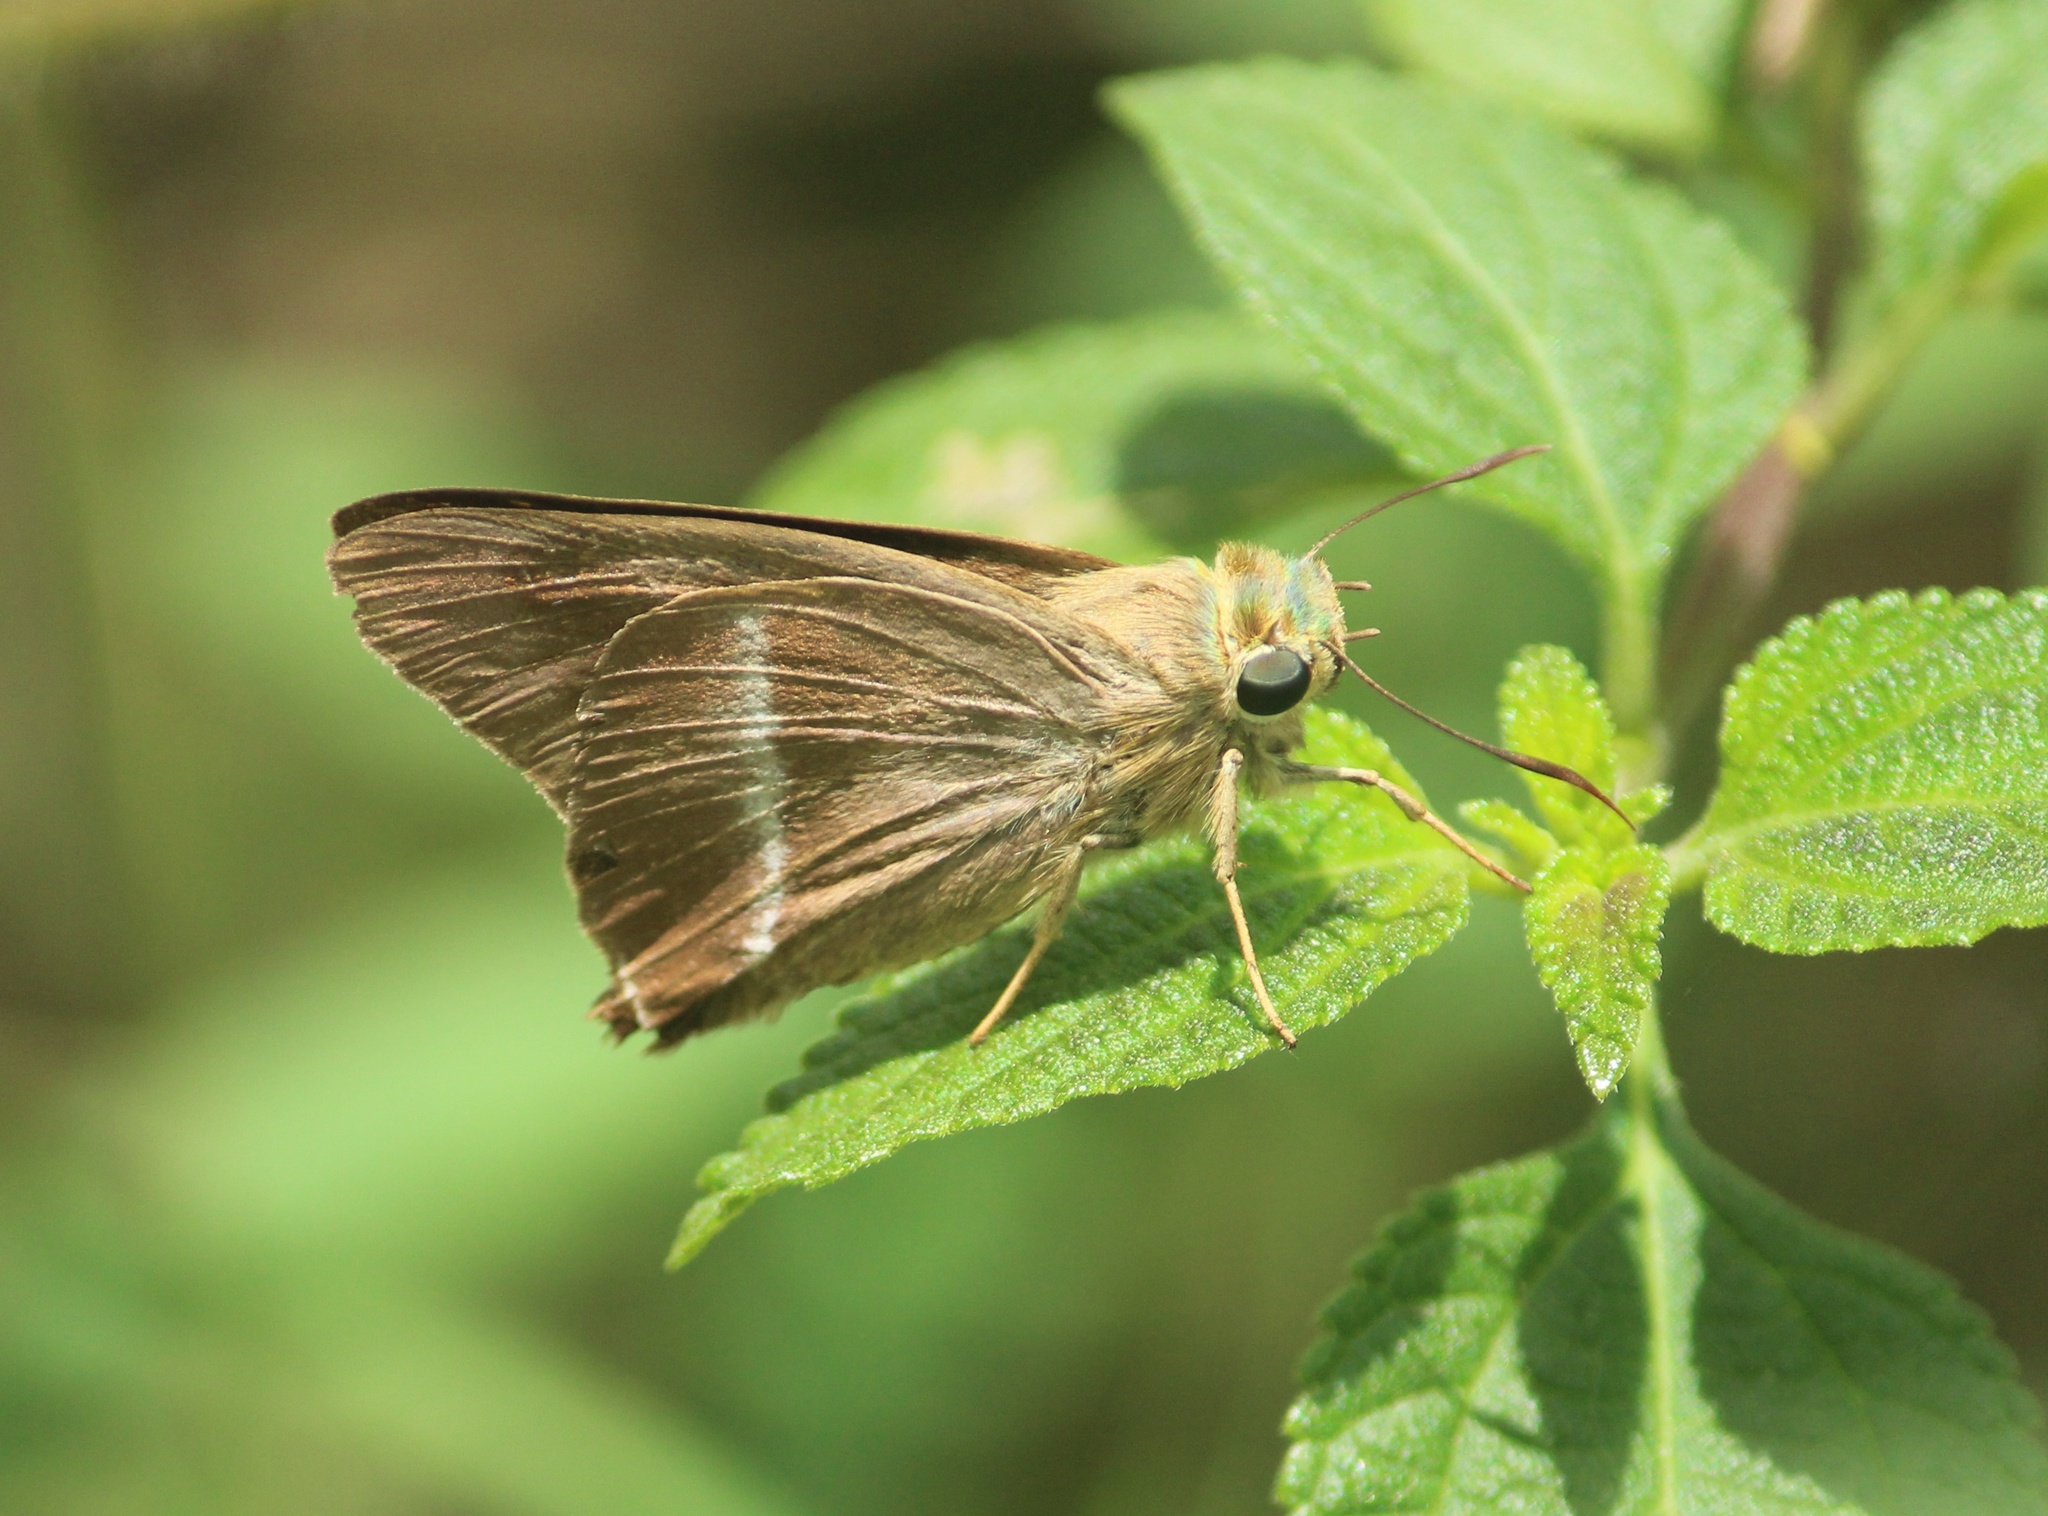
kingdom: Animalia
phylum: Arthropoda
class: Insecta
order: Lepidoptera
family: Hesperiidae
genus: Hasora
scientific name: Hasora chromus
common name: Common banded awl
